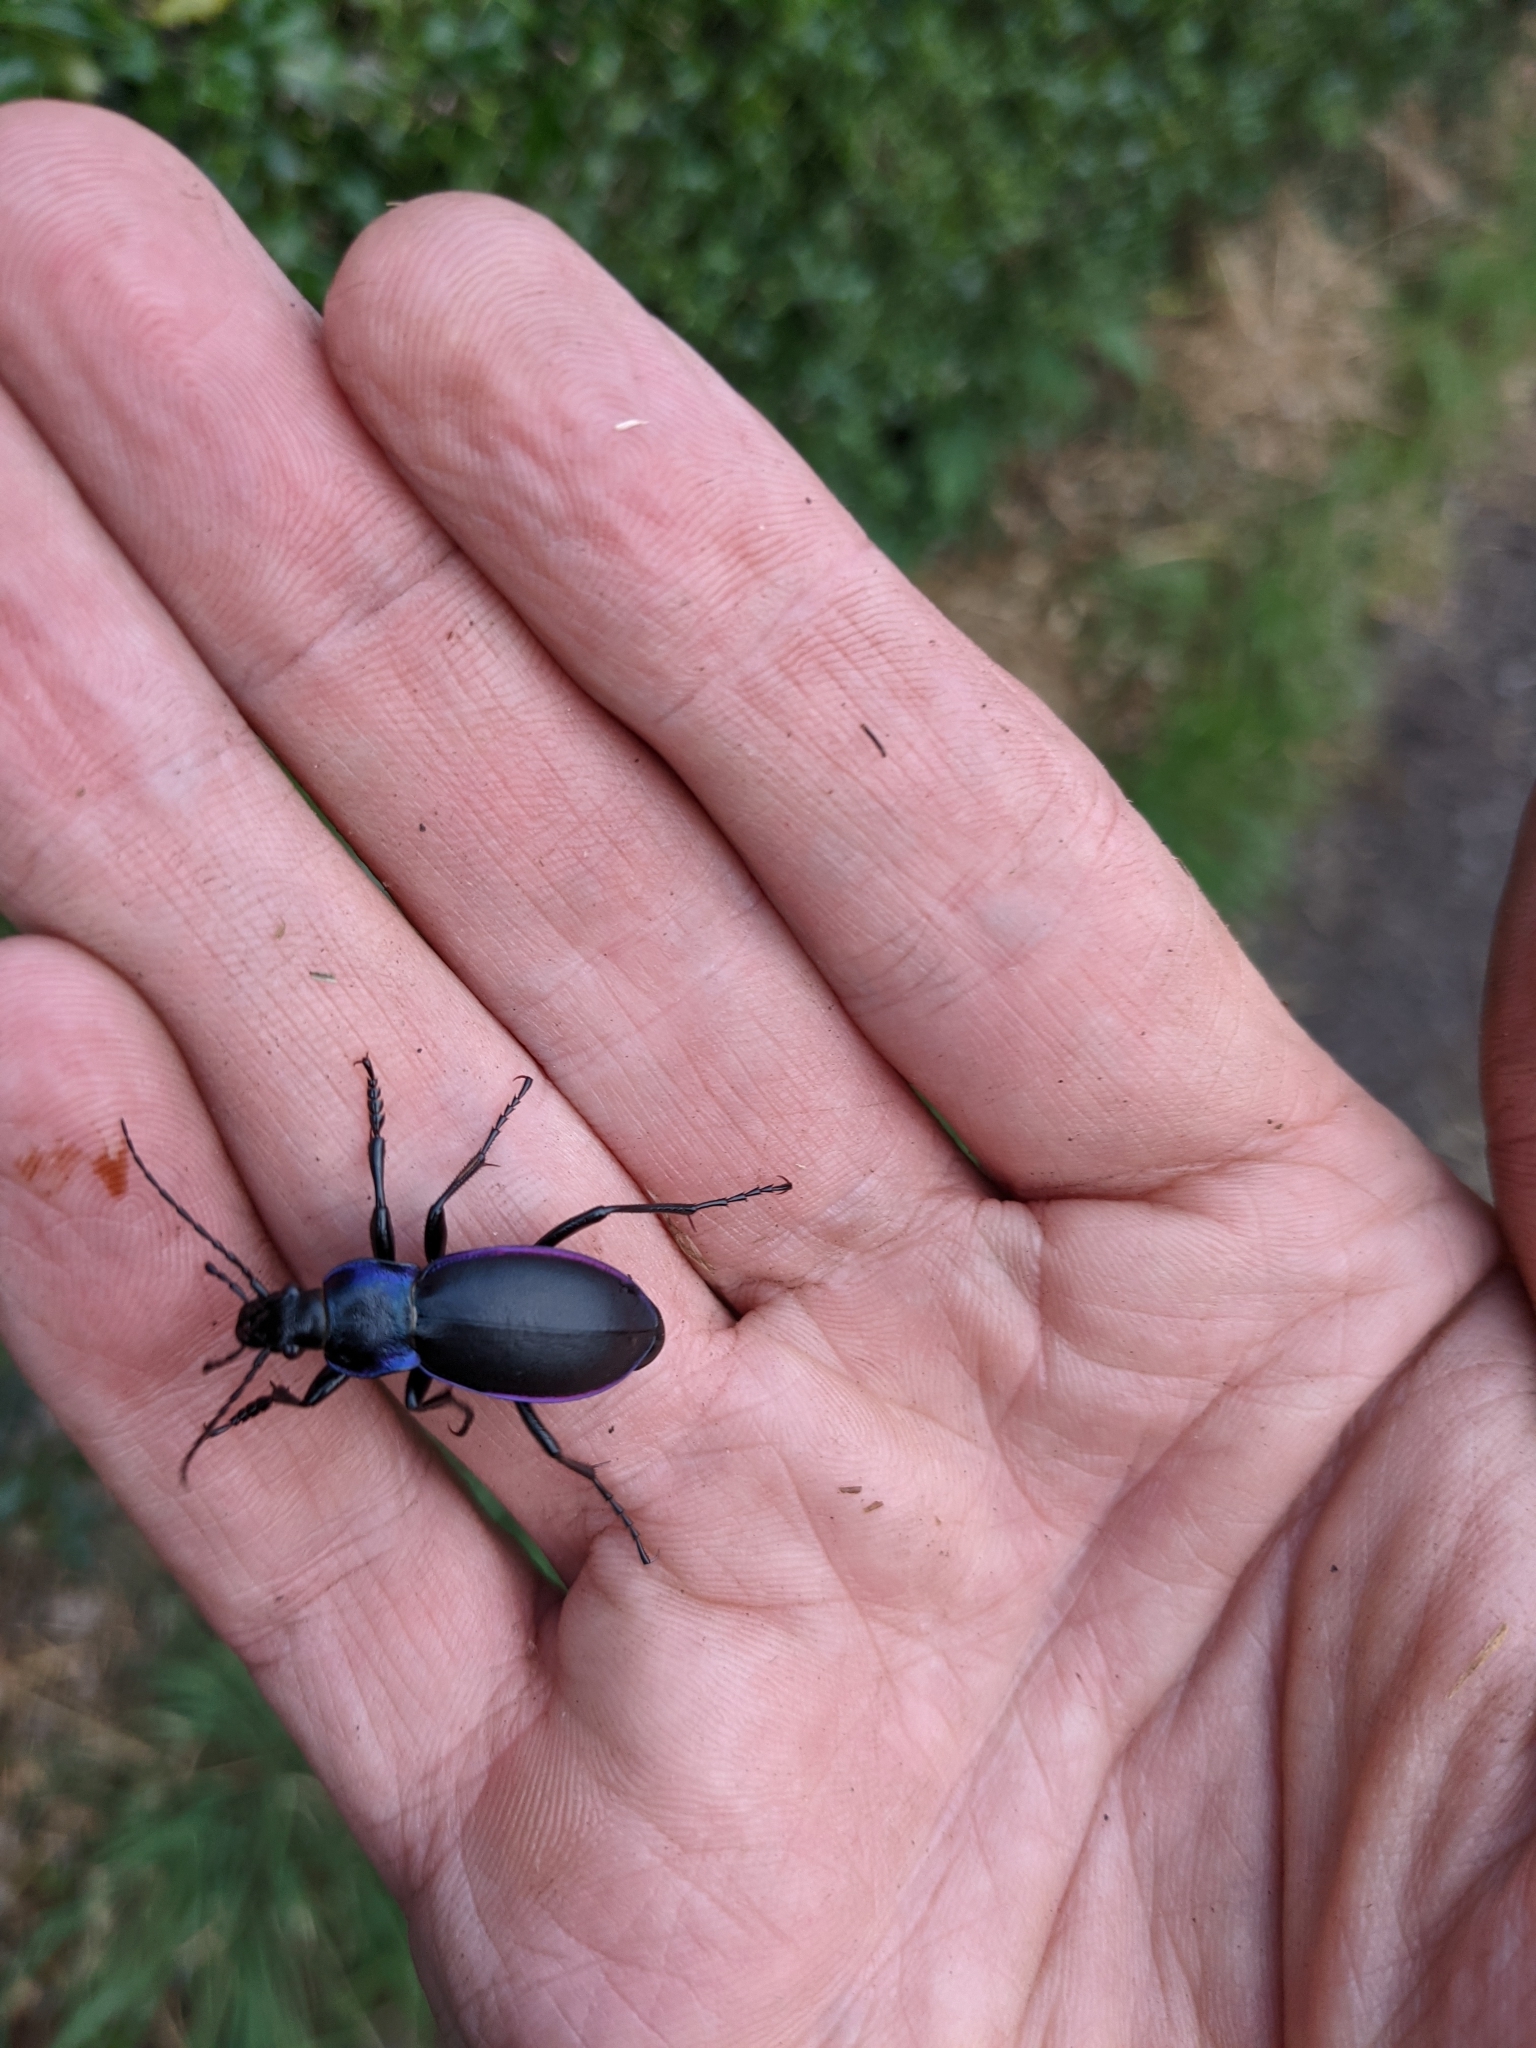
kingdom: Animalia
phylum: Arthropoda
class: Insecta
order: Coleoptera
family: Carabidae
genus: Carabus
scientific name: Carabus violaceus
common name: Violet ground beetle
